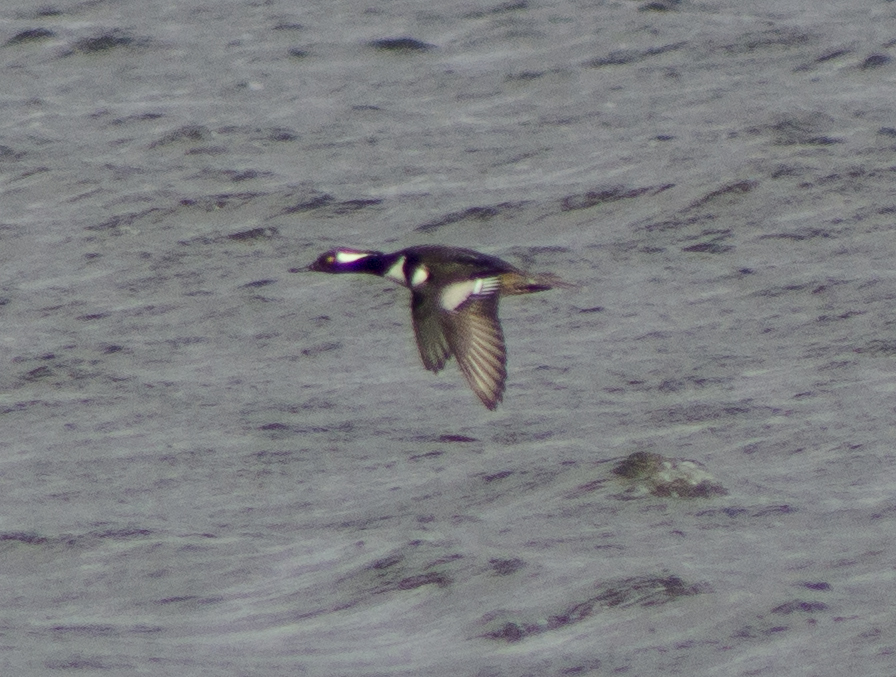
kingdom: Animalia
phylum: Chordata
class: Aves
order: Anseriformes
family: Anatidae
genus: Lophodytes
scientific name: Lophodytes cucullatus
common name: Hooded merganser
